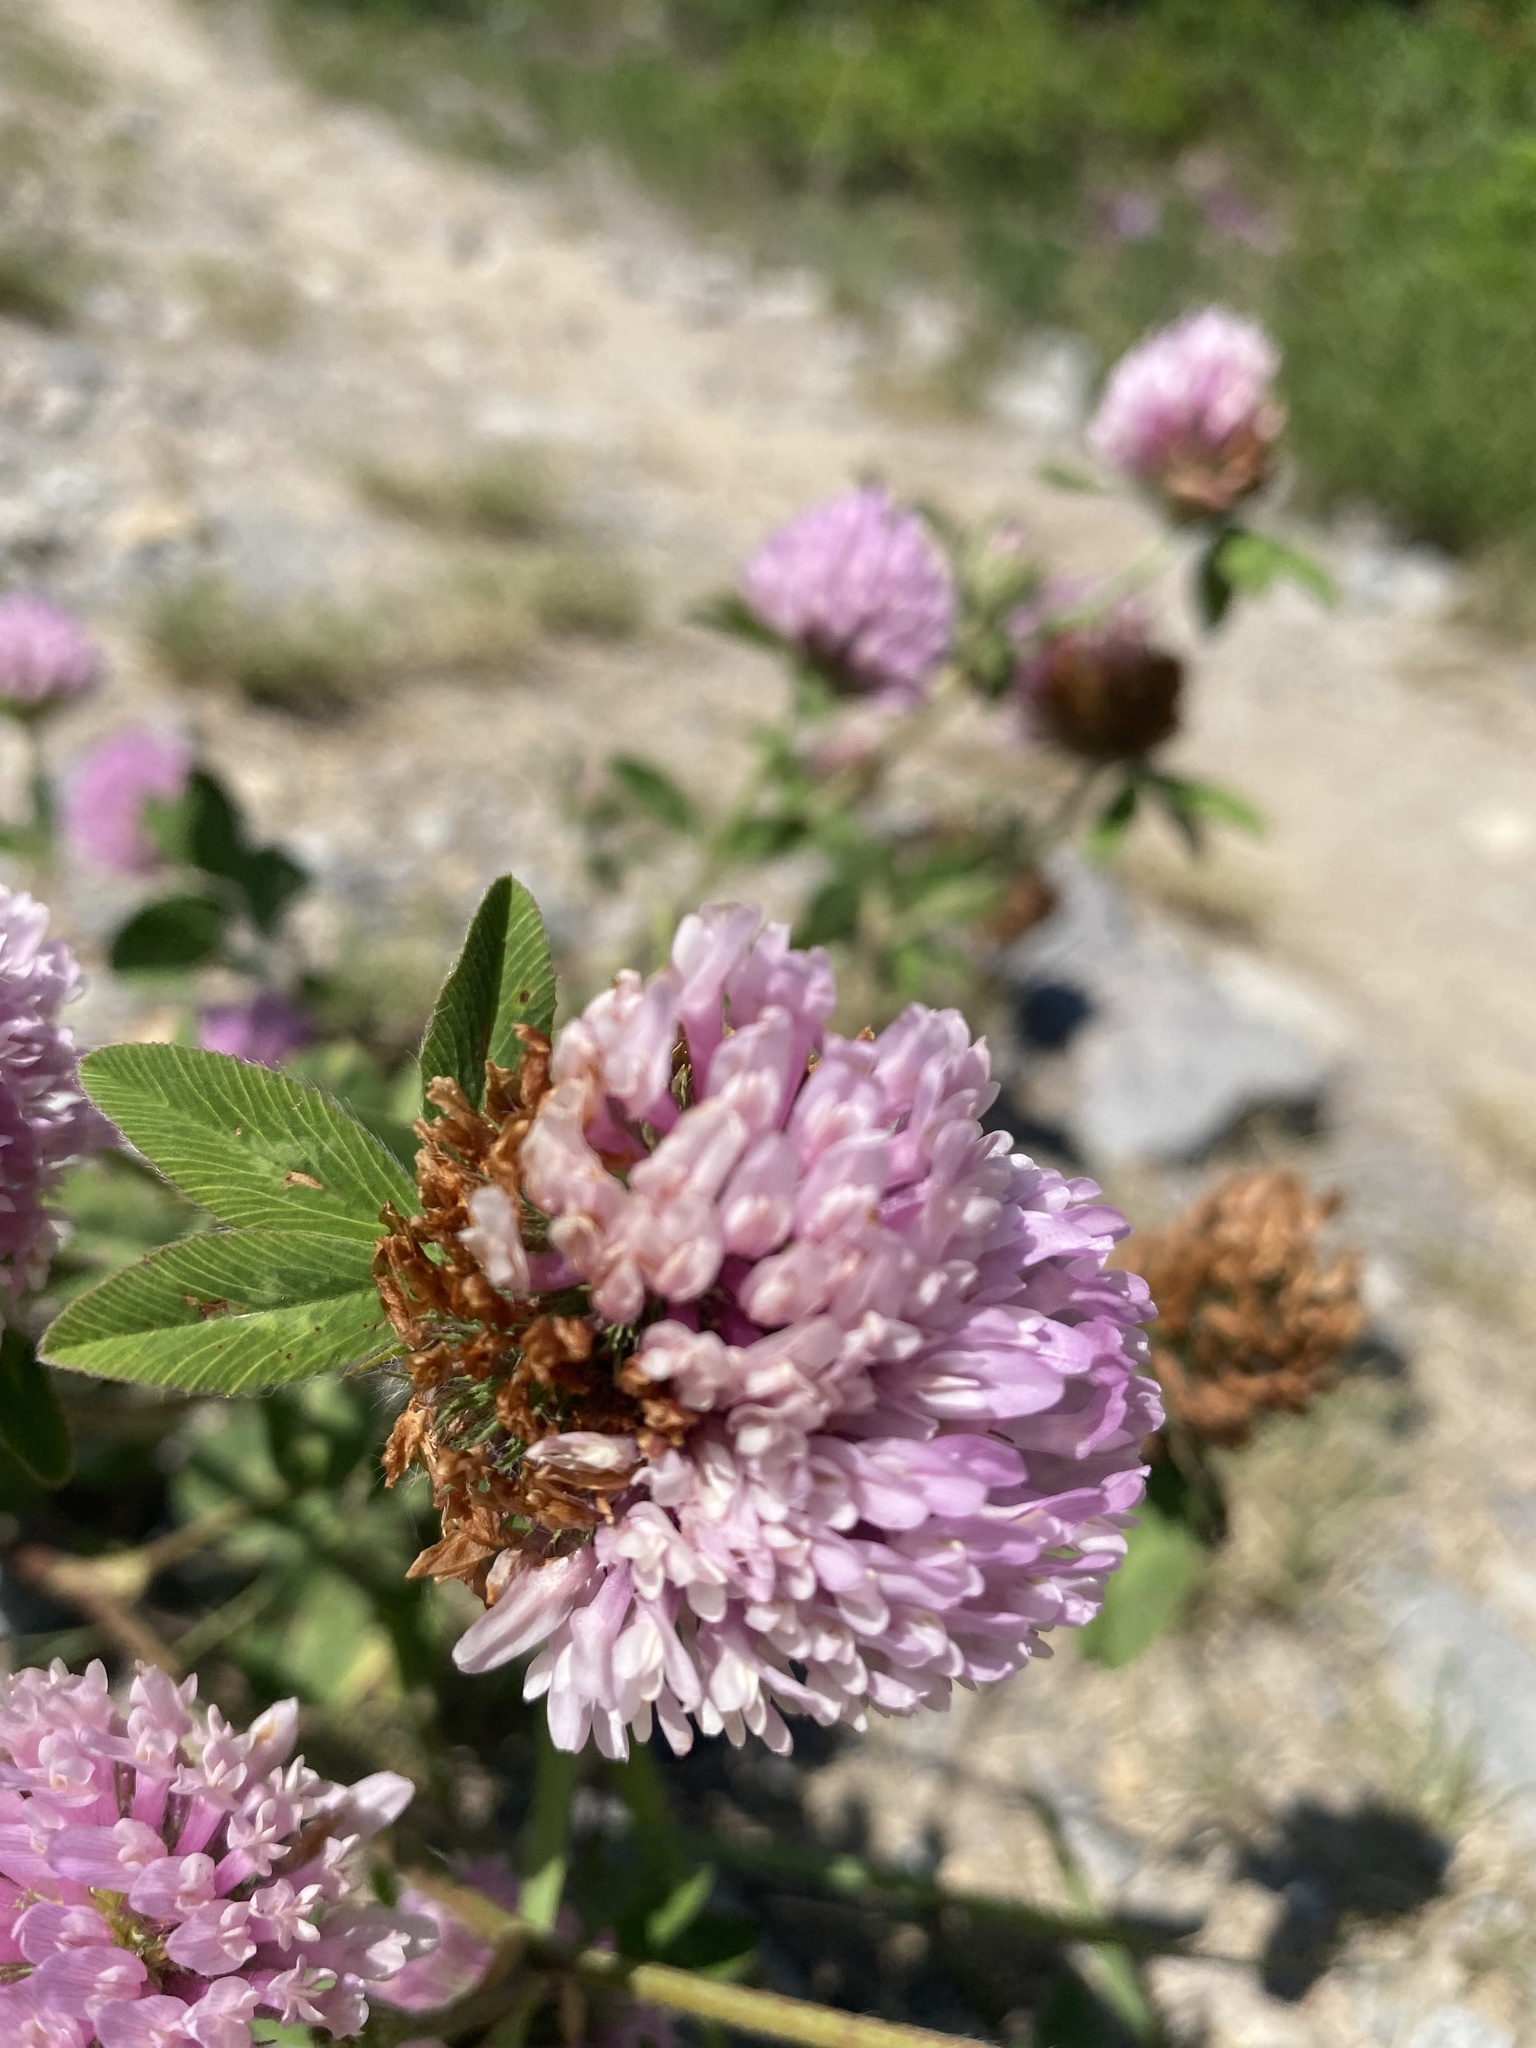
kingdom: Plantae
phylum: Tracheophyta
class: Magnoliopsida
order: Fabales
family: Fabaceae
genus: Trifolium
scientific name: Trifolium pratense
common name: Red clover
